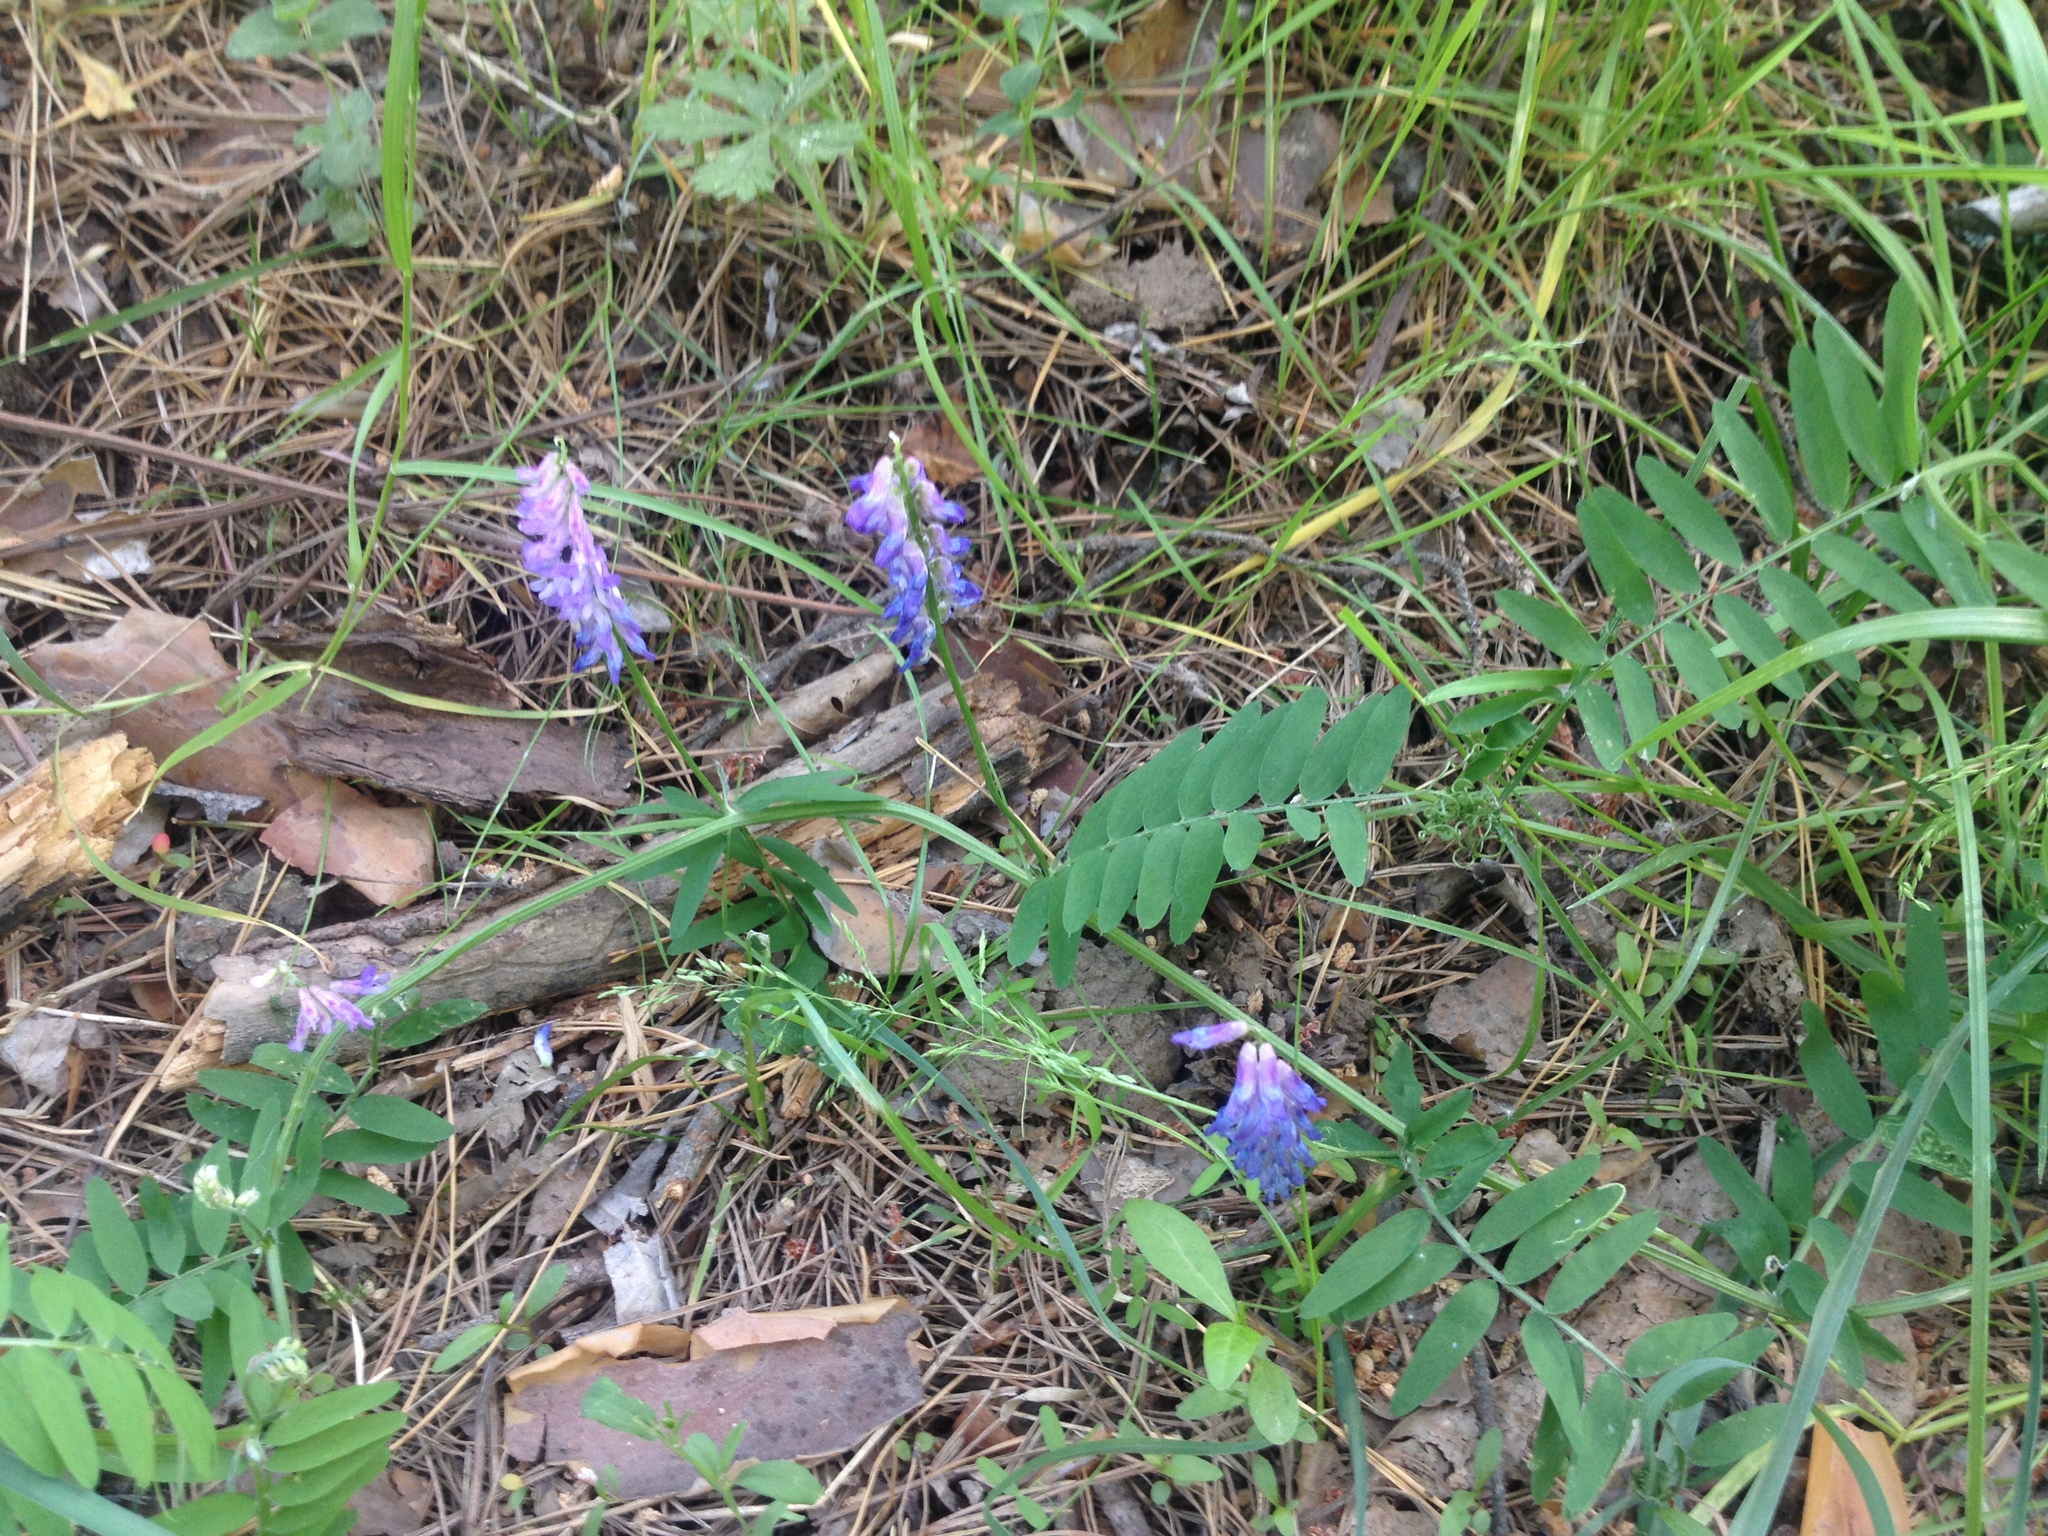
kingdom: Plantae
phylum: Tracheophyta
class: Magnoliopsida
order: Fabales
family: Fabaceae
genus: Vicia
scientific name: Vicia cracca
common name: Bird vetch
